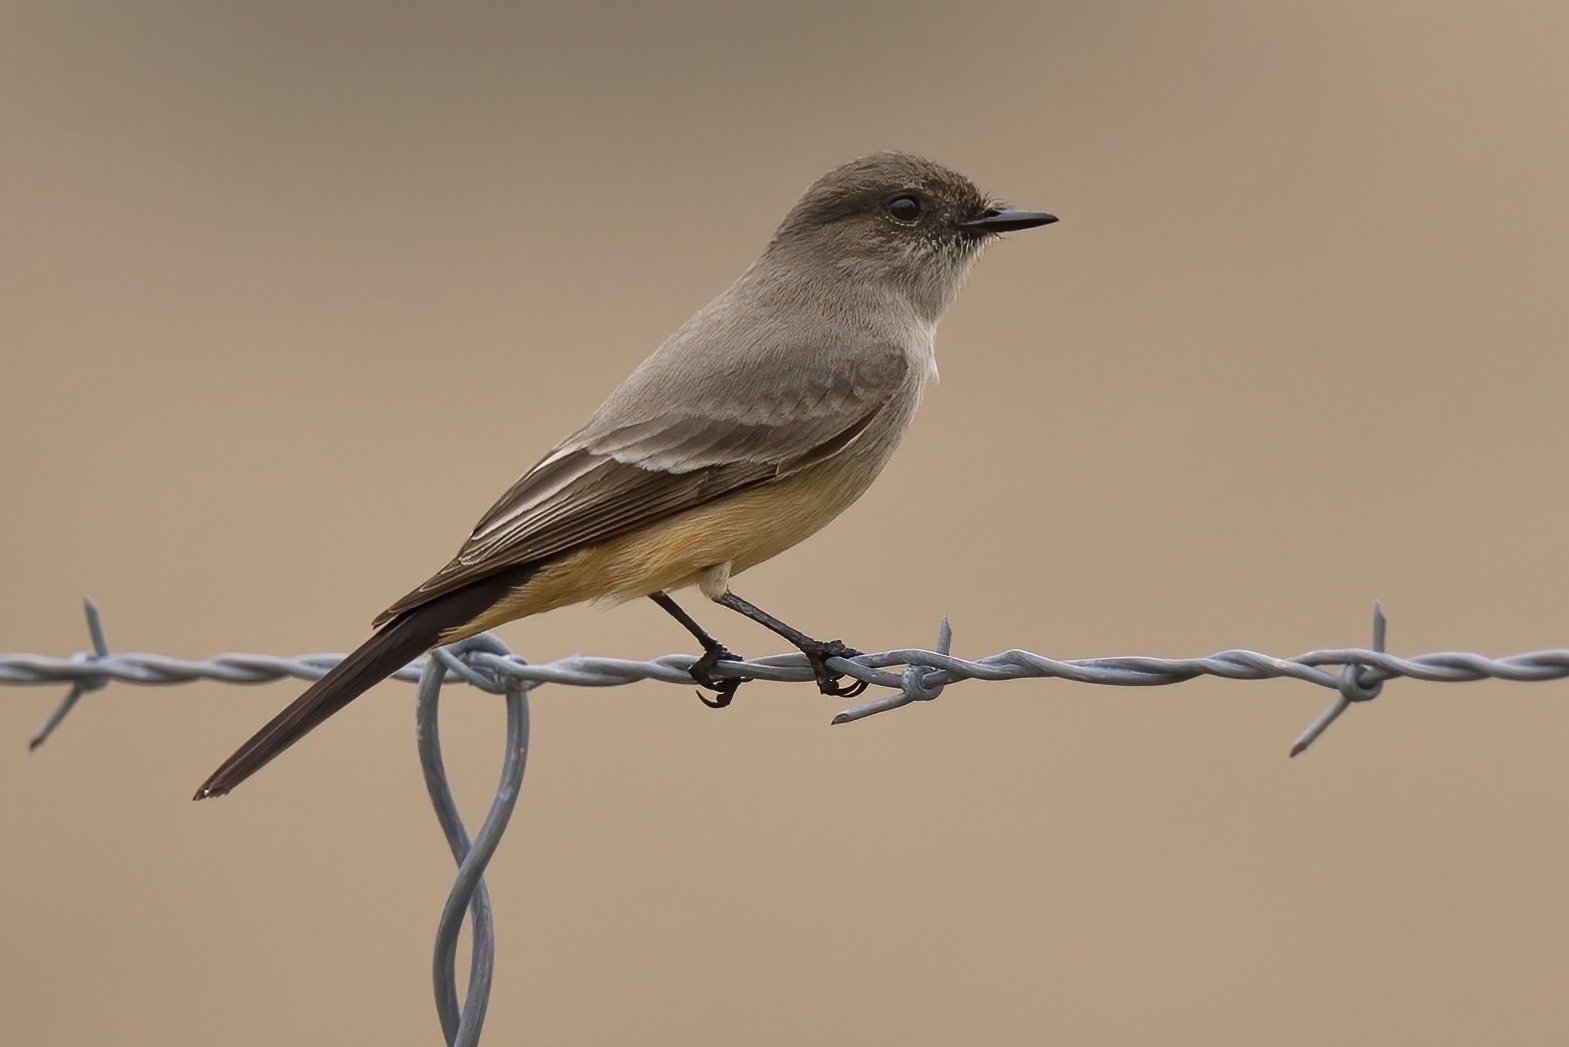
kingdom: Animalia
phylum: Chordata
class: Aves
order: Passeriformes
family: Tyrannidae
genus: Sayornis
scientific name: Sayornis saya
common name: Say's phoebe
